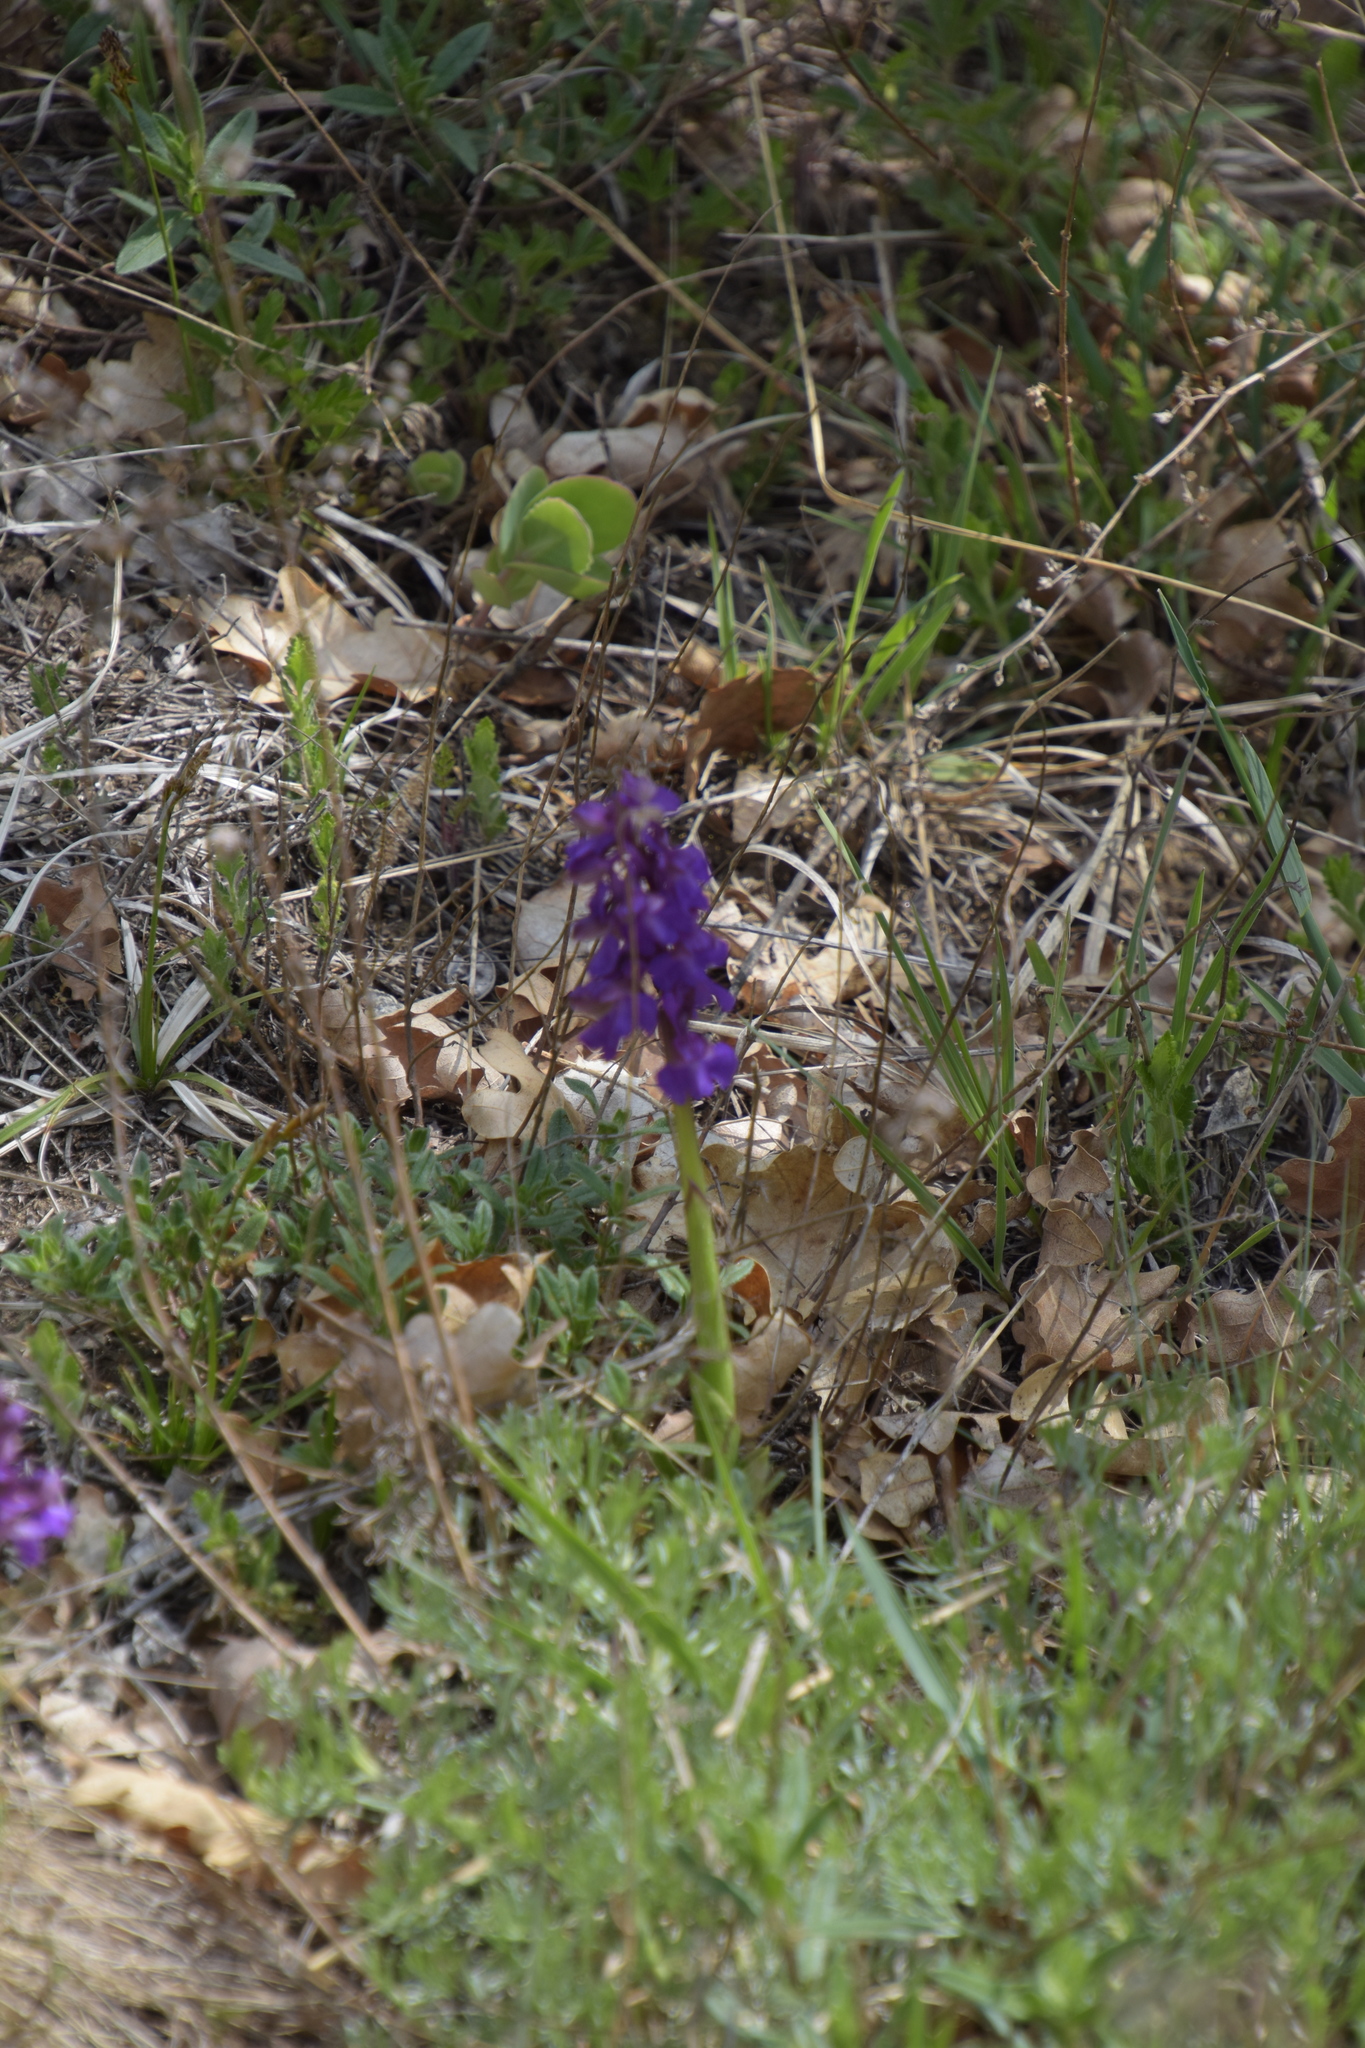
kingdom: Plantae
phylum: Tracheophyta
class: Liliopsida
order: Asparagales
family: Orchidaceae
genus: Anacamptis
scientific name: Anacamptis morio
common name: Green-winged orchid
